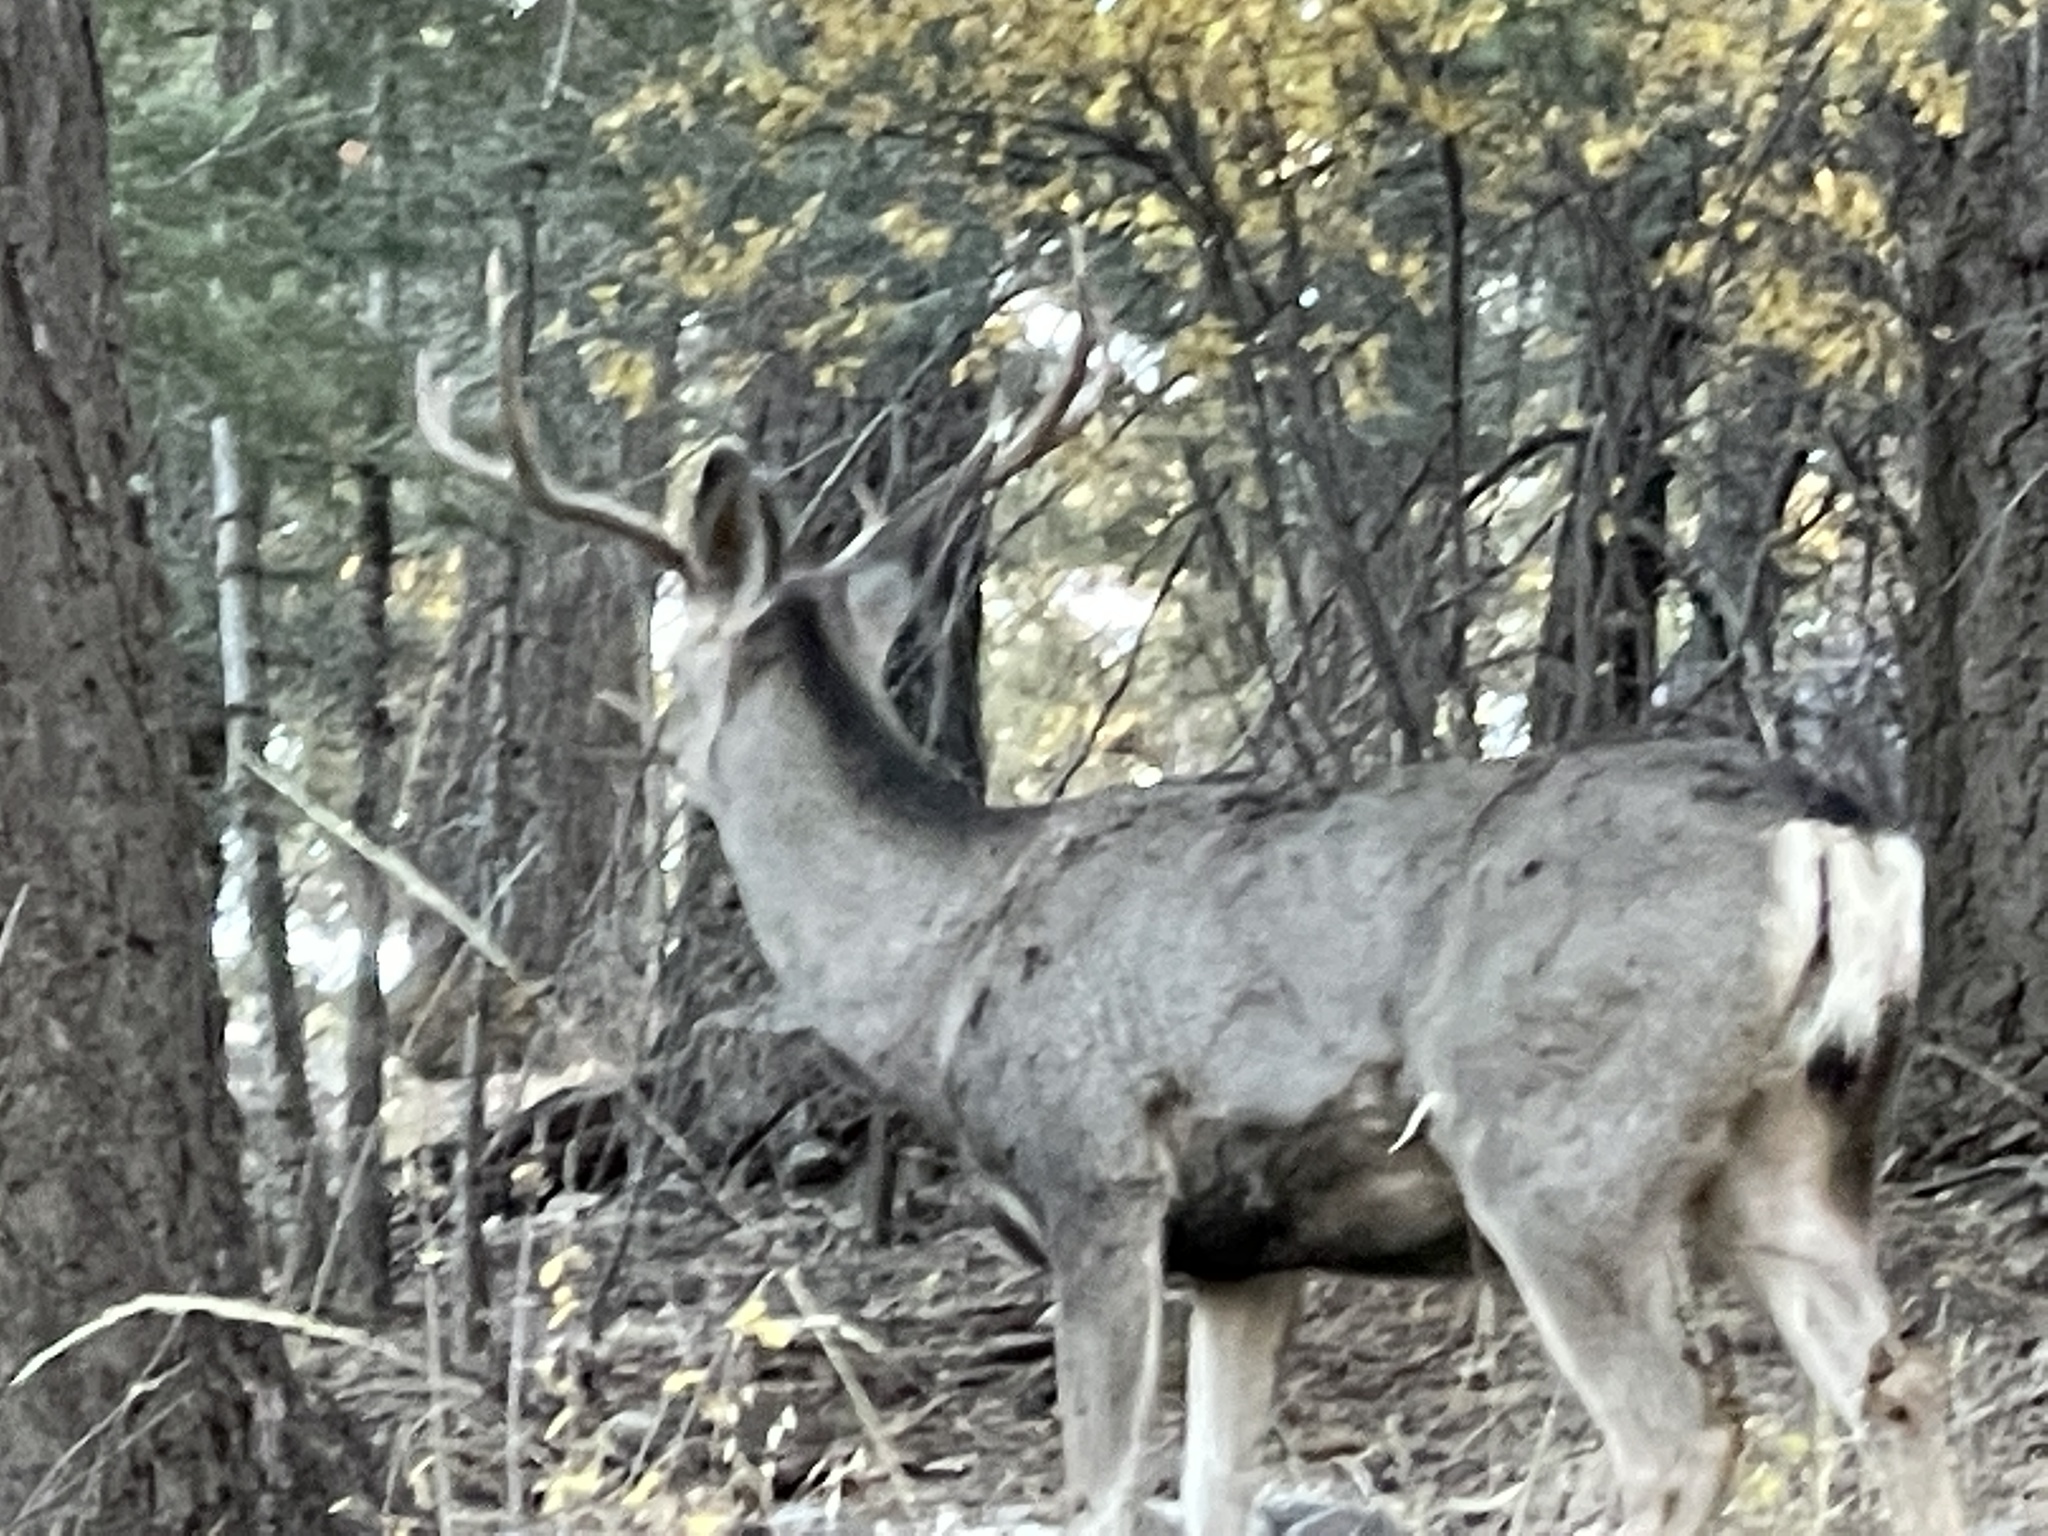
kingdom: Animalia
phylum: Chordata
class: Mammalia
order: Artiodactyla
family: Cervidae
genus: Odocoileus
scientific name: Odocoileus hemionus
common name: Mule deer
